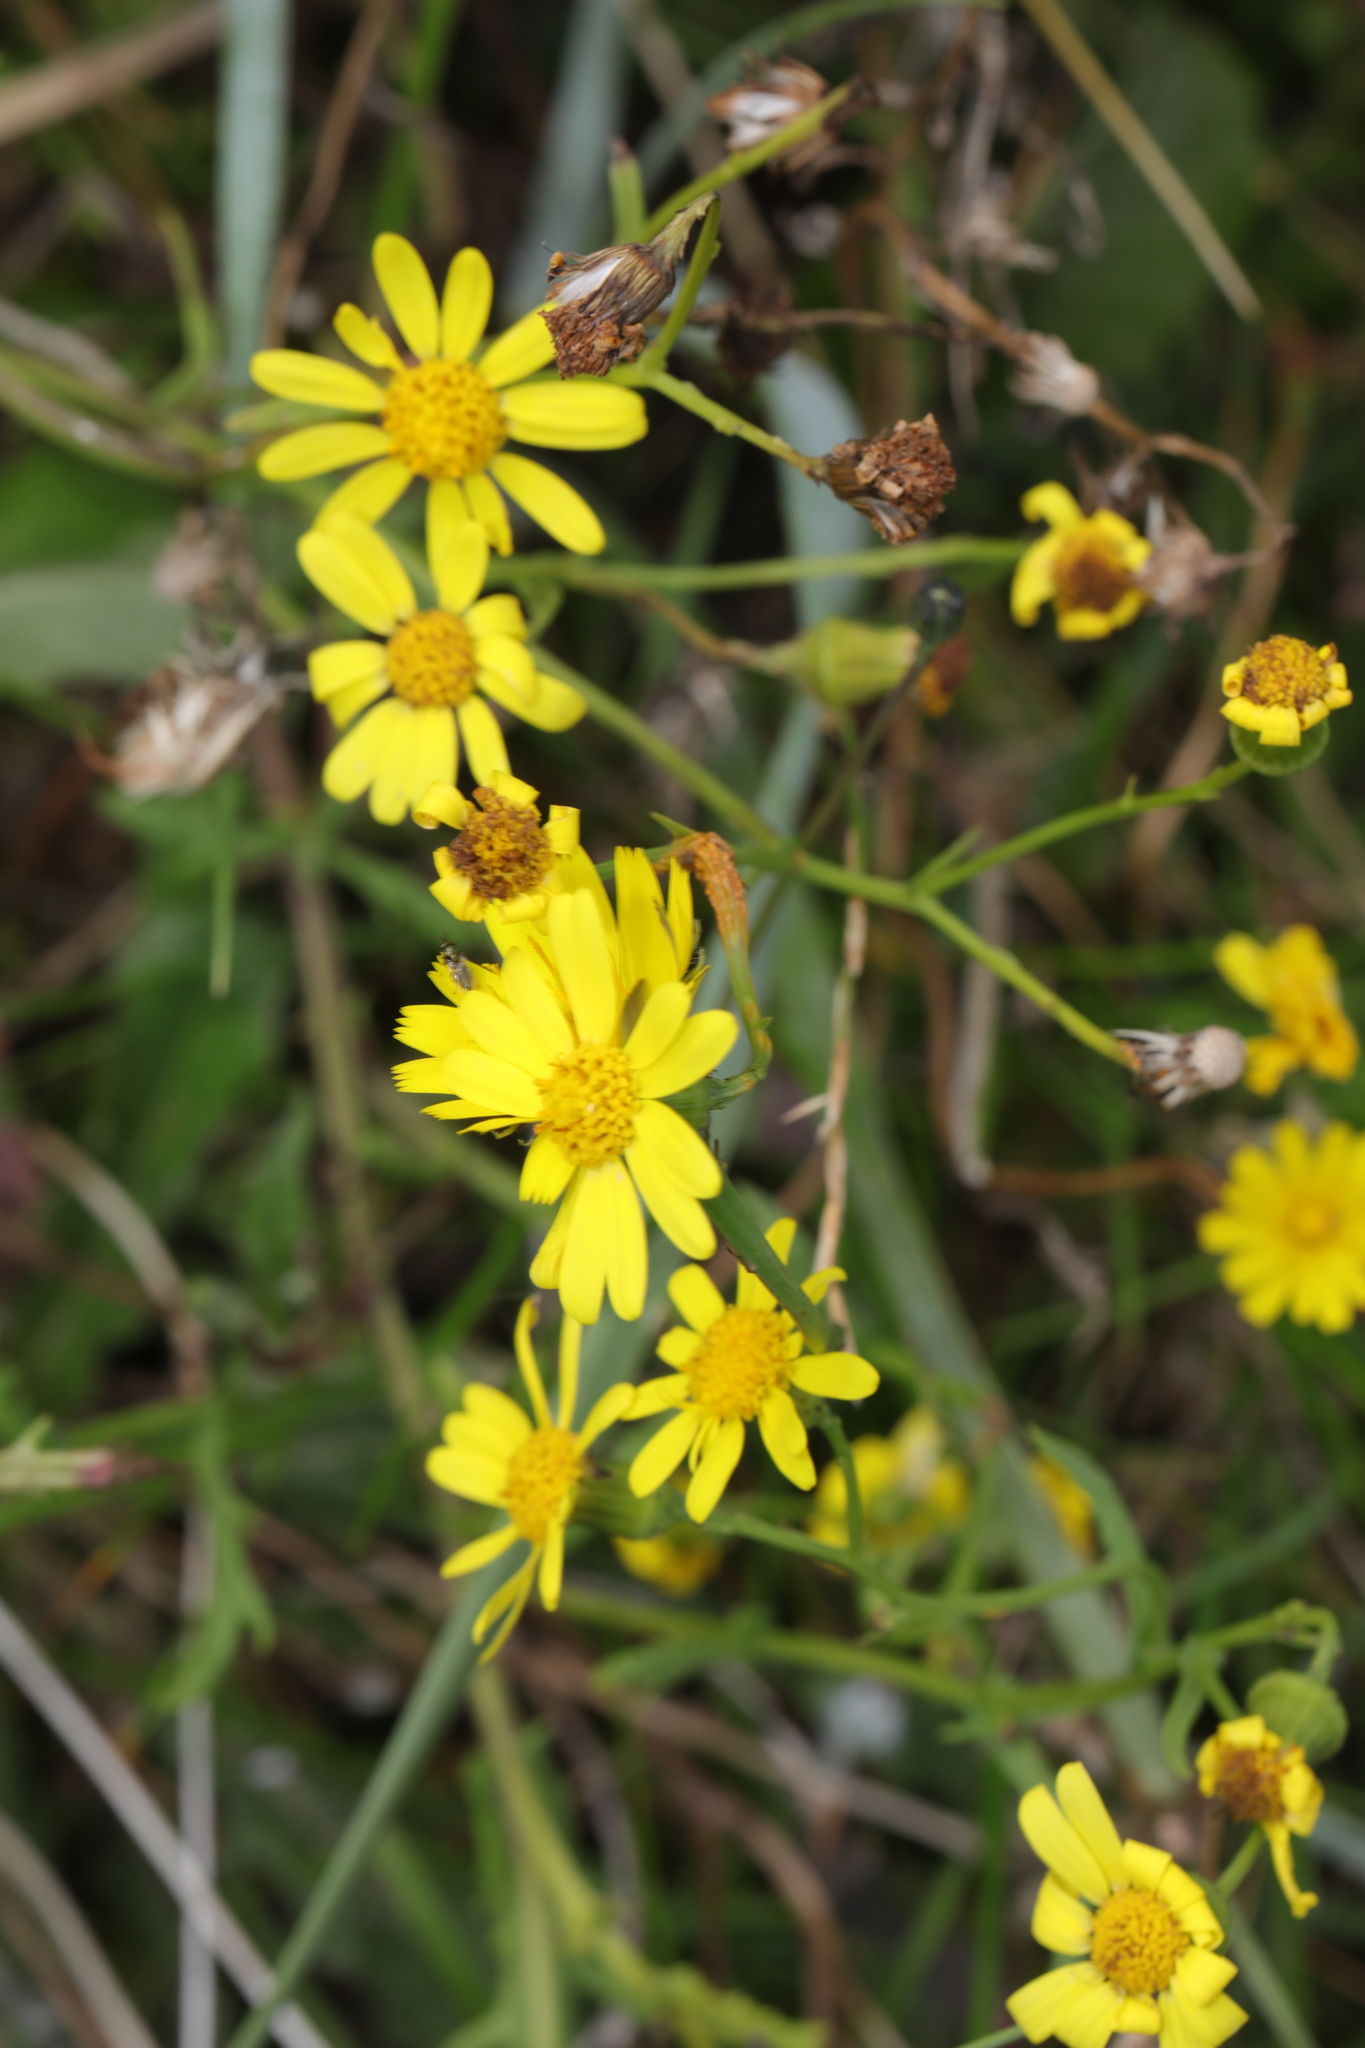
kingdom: Plantae
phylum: Tracheophyta
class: Magnoliopsida
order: Asterales
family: Asteraceae
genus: Senecio
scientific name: Senecio inaequidens
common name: Narrow-leaved ragwort
